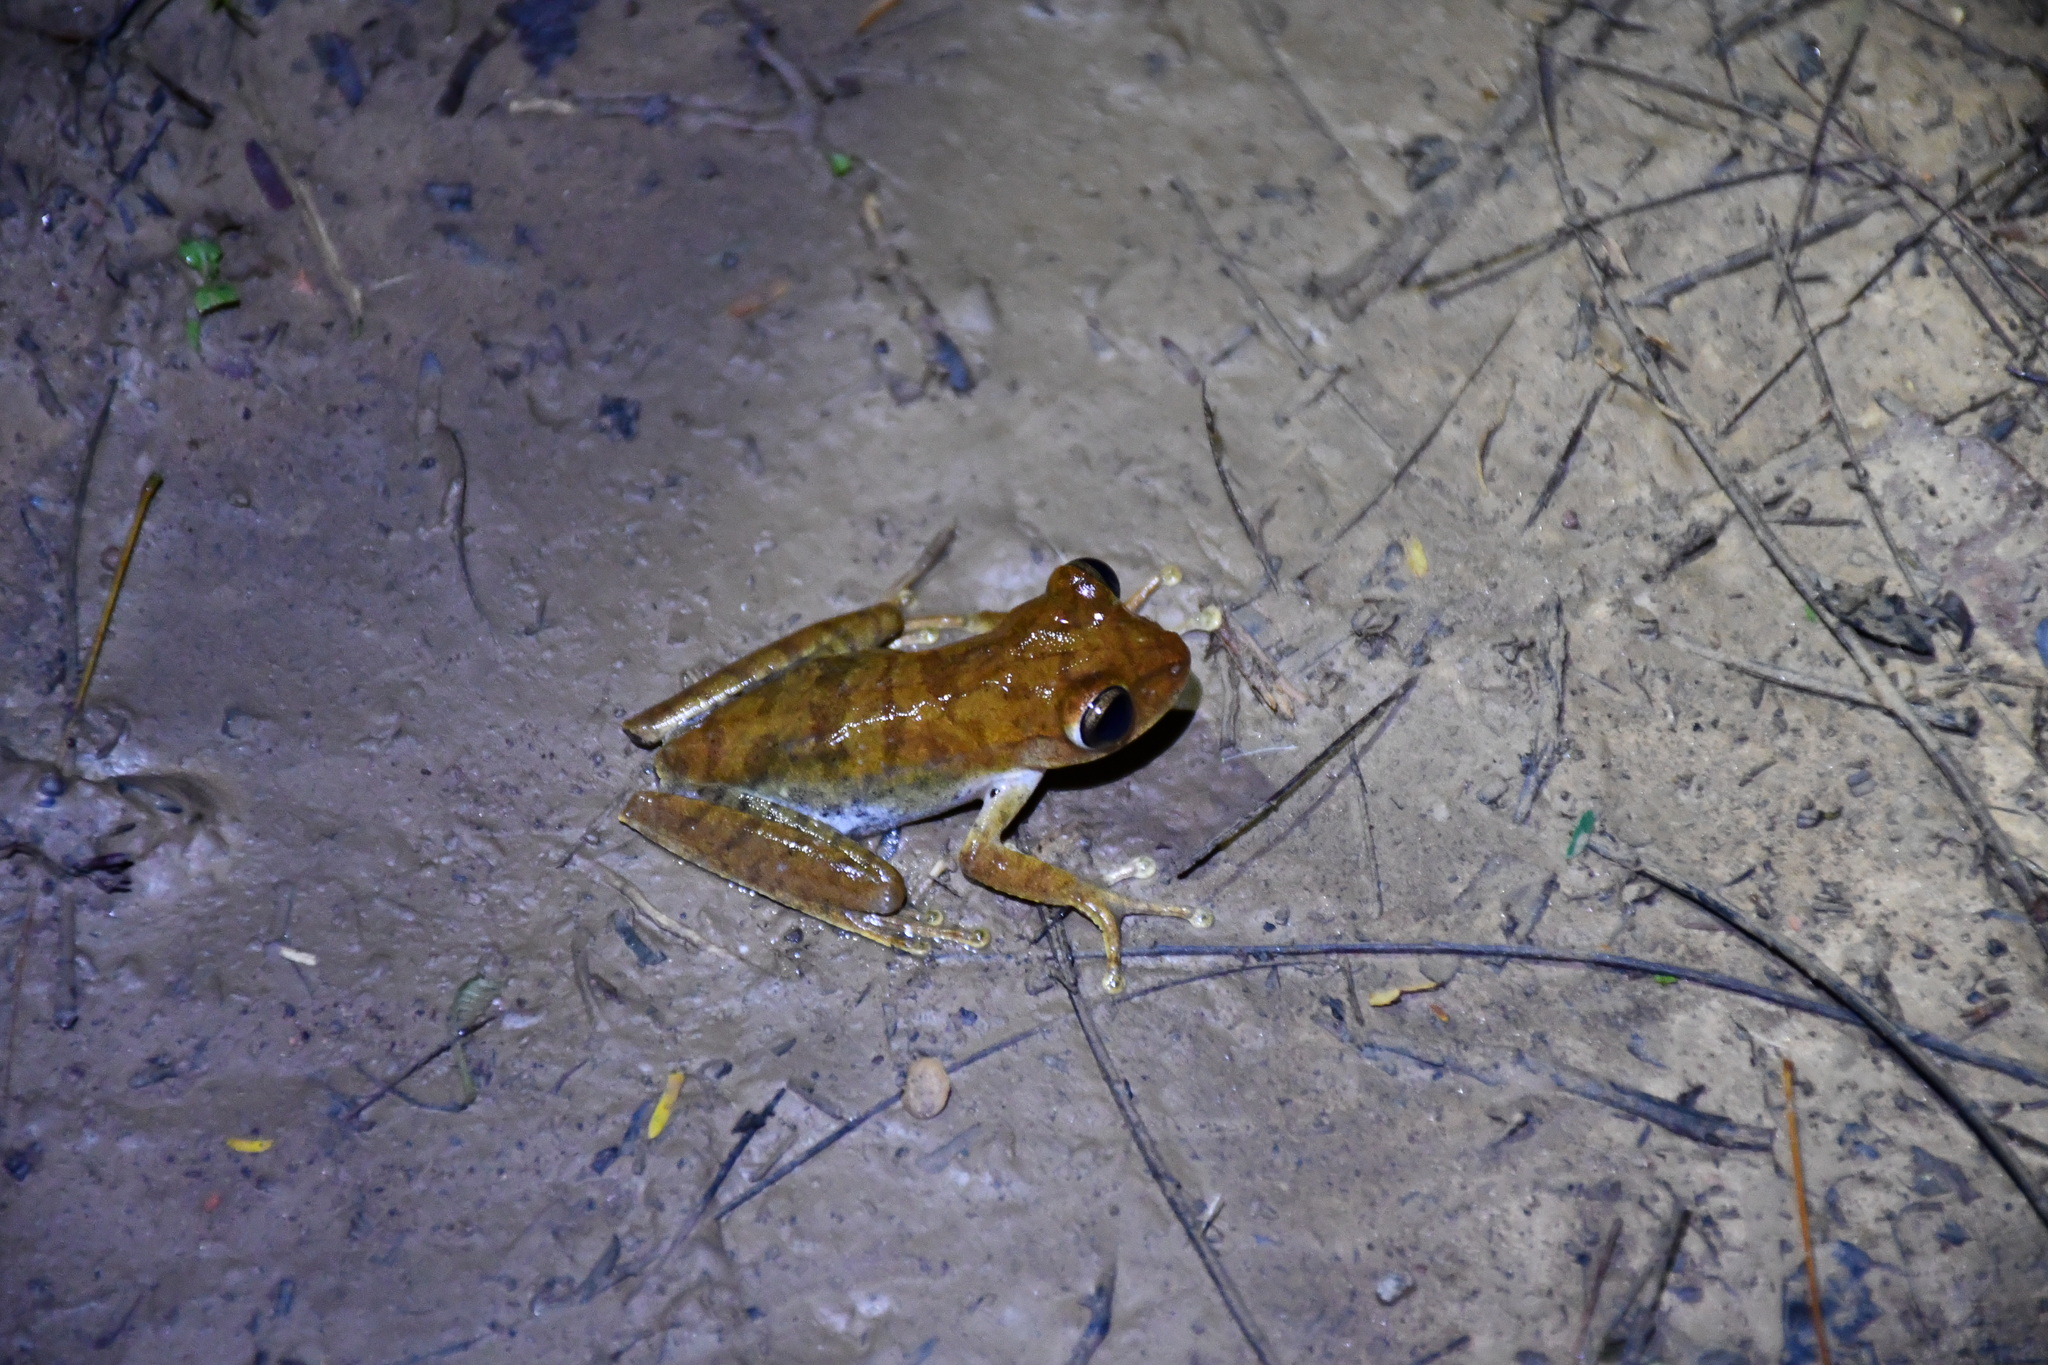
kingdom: Animalia
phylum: Chordata
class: Amphibia
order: Anura
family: Hylidae
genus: Boana
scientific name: Boana steinbachi
